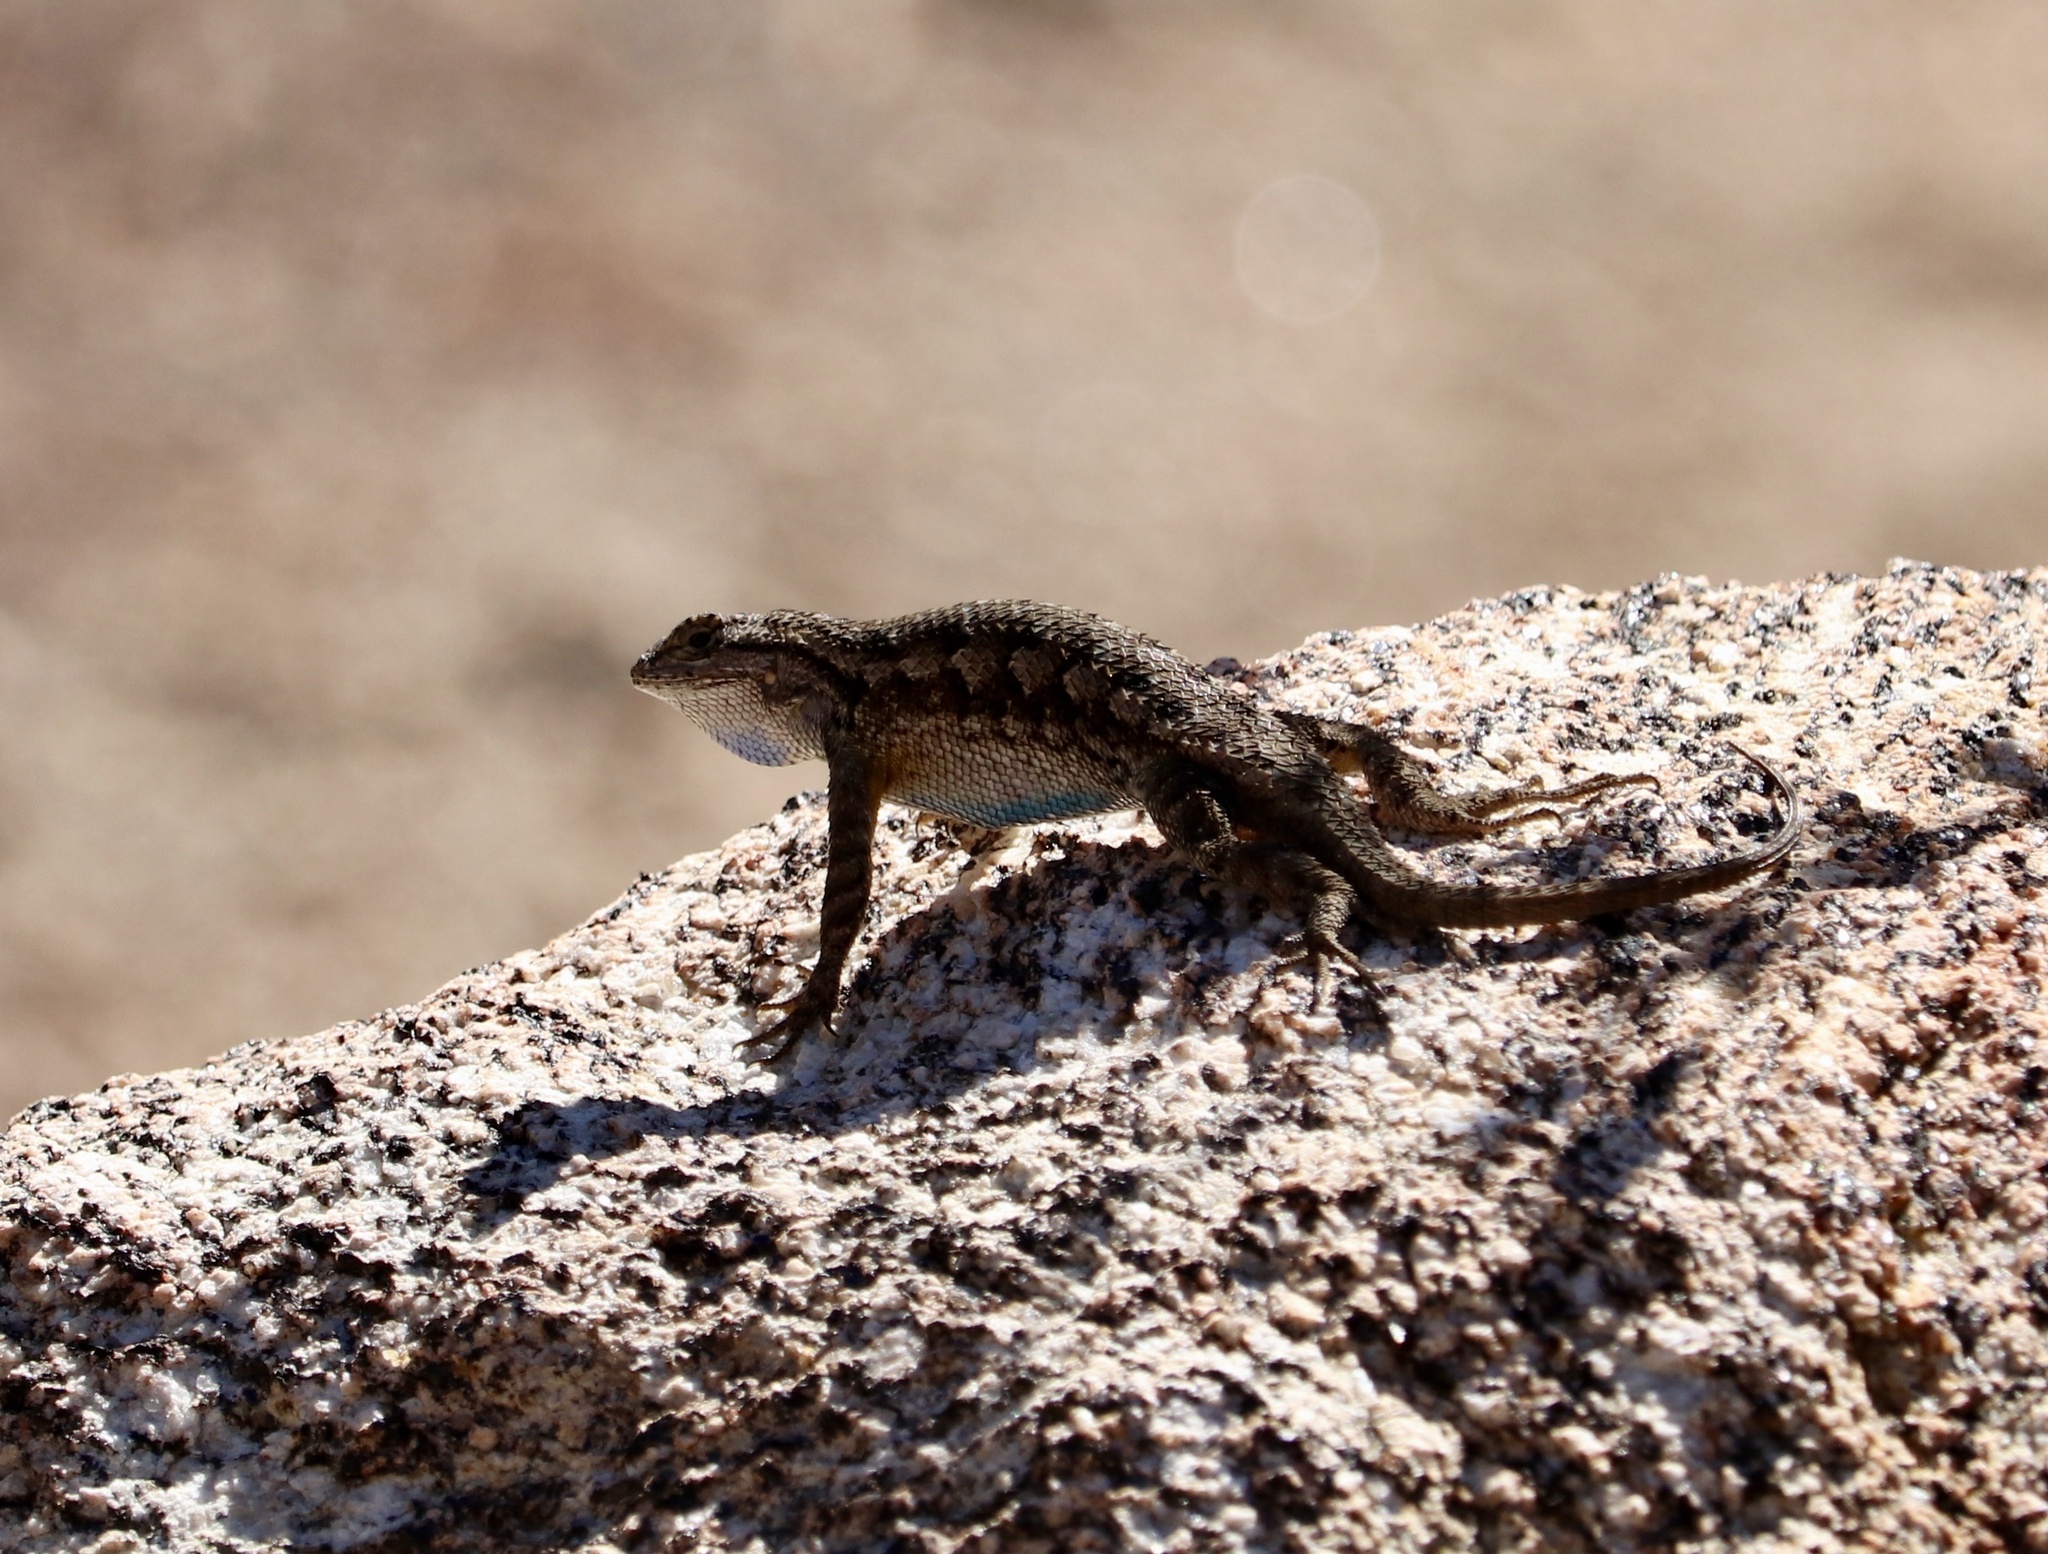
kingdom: Animalia
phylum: Chordata
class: Squamata
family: Phrynosomatidae
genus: Sceloporus
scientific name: Sceloporus occidentalis
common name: Western fence lizard
